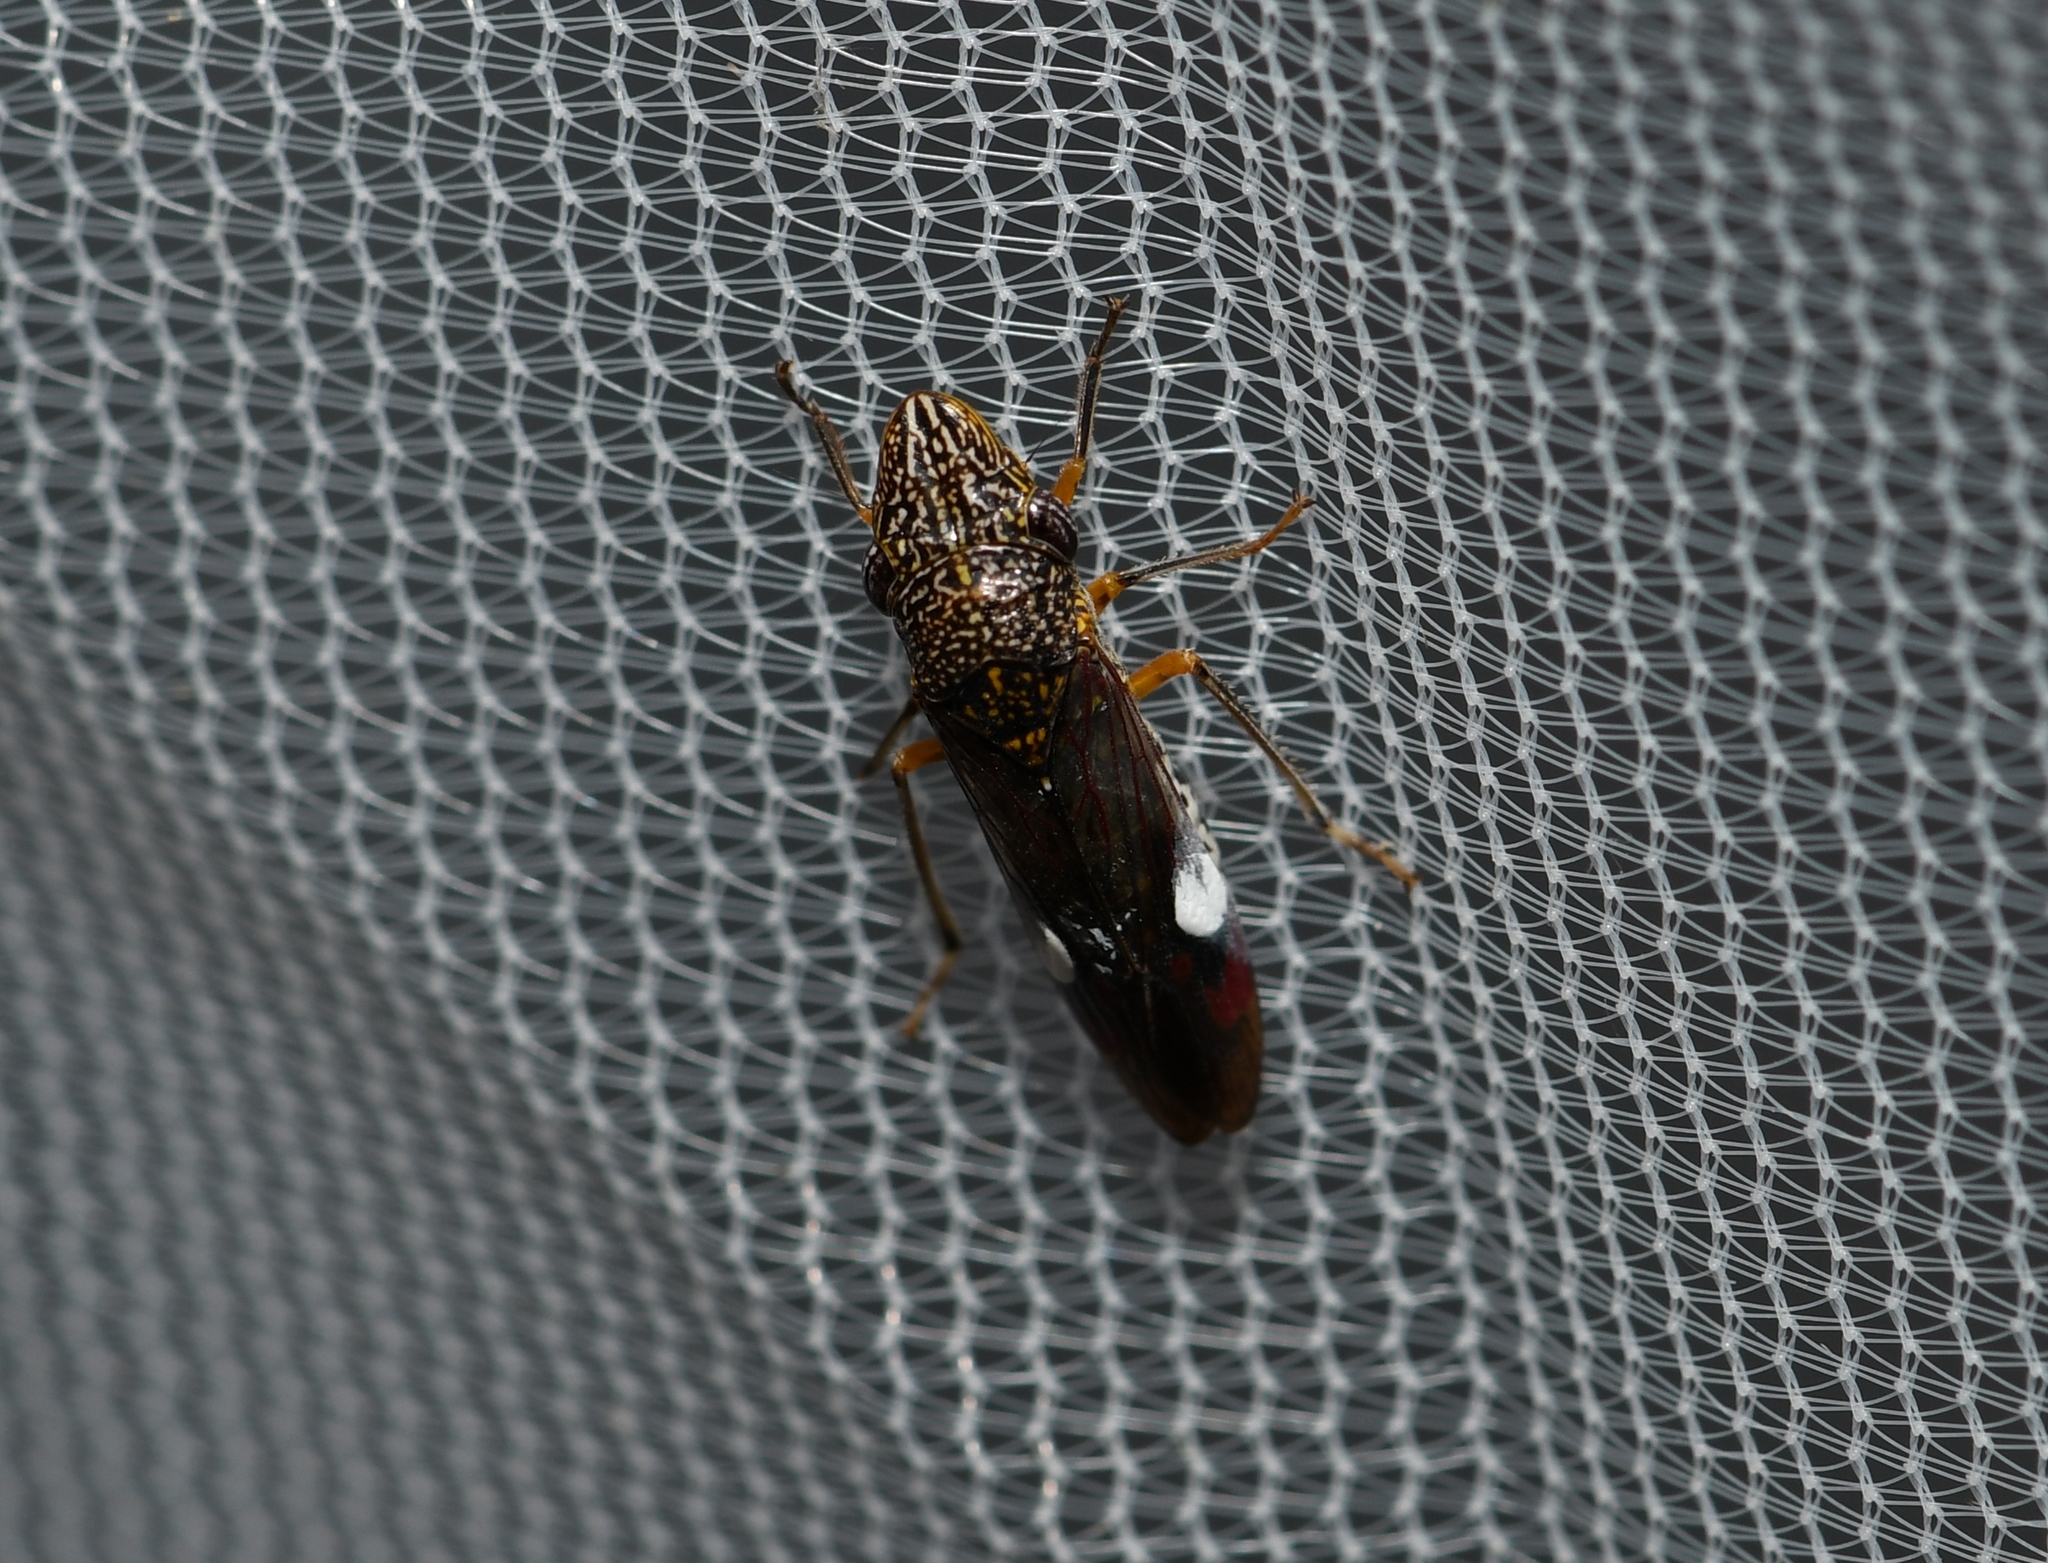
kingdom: Animalia
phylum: Arthropoda
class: Insecta
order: Hemiptera
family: Cicadellidae
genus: Homalodisca
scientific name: Homalodisca liturata
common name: Lacertate sharpshooter
